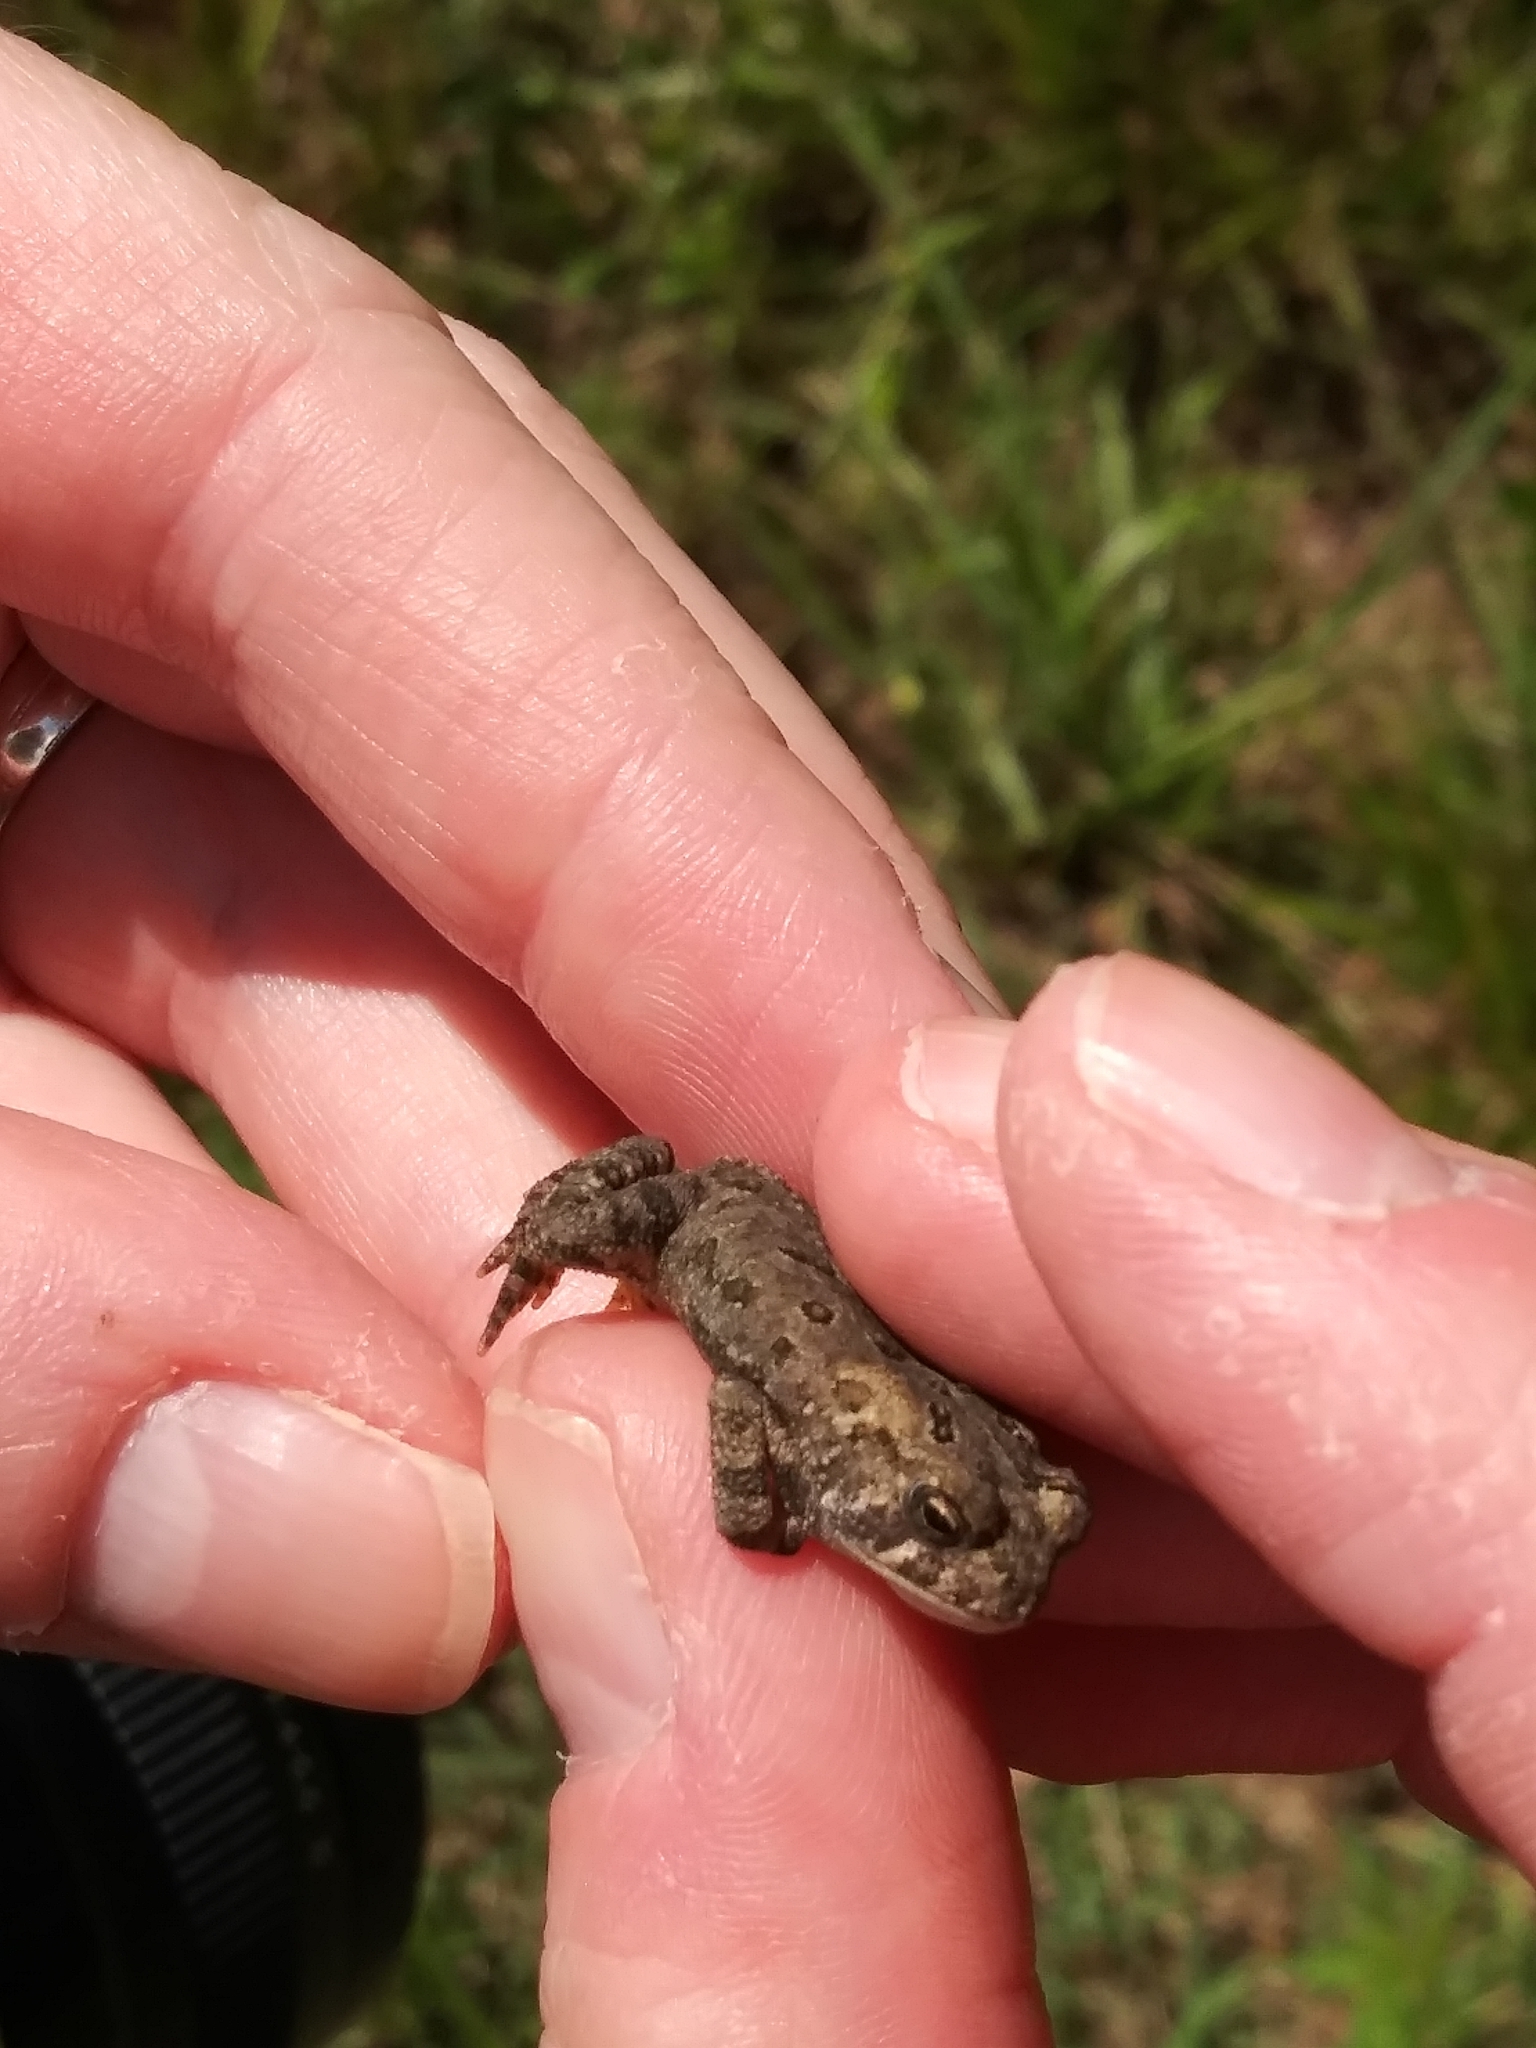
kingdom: Animalia
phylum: Chordata
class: Amphibia
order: Anura
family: Bufonidae
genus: Anaxyrus
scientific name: Anaxyrus americanus
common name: American toad
